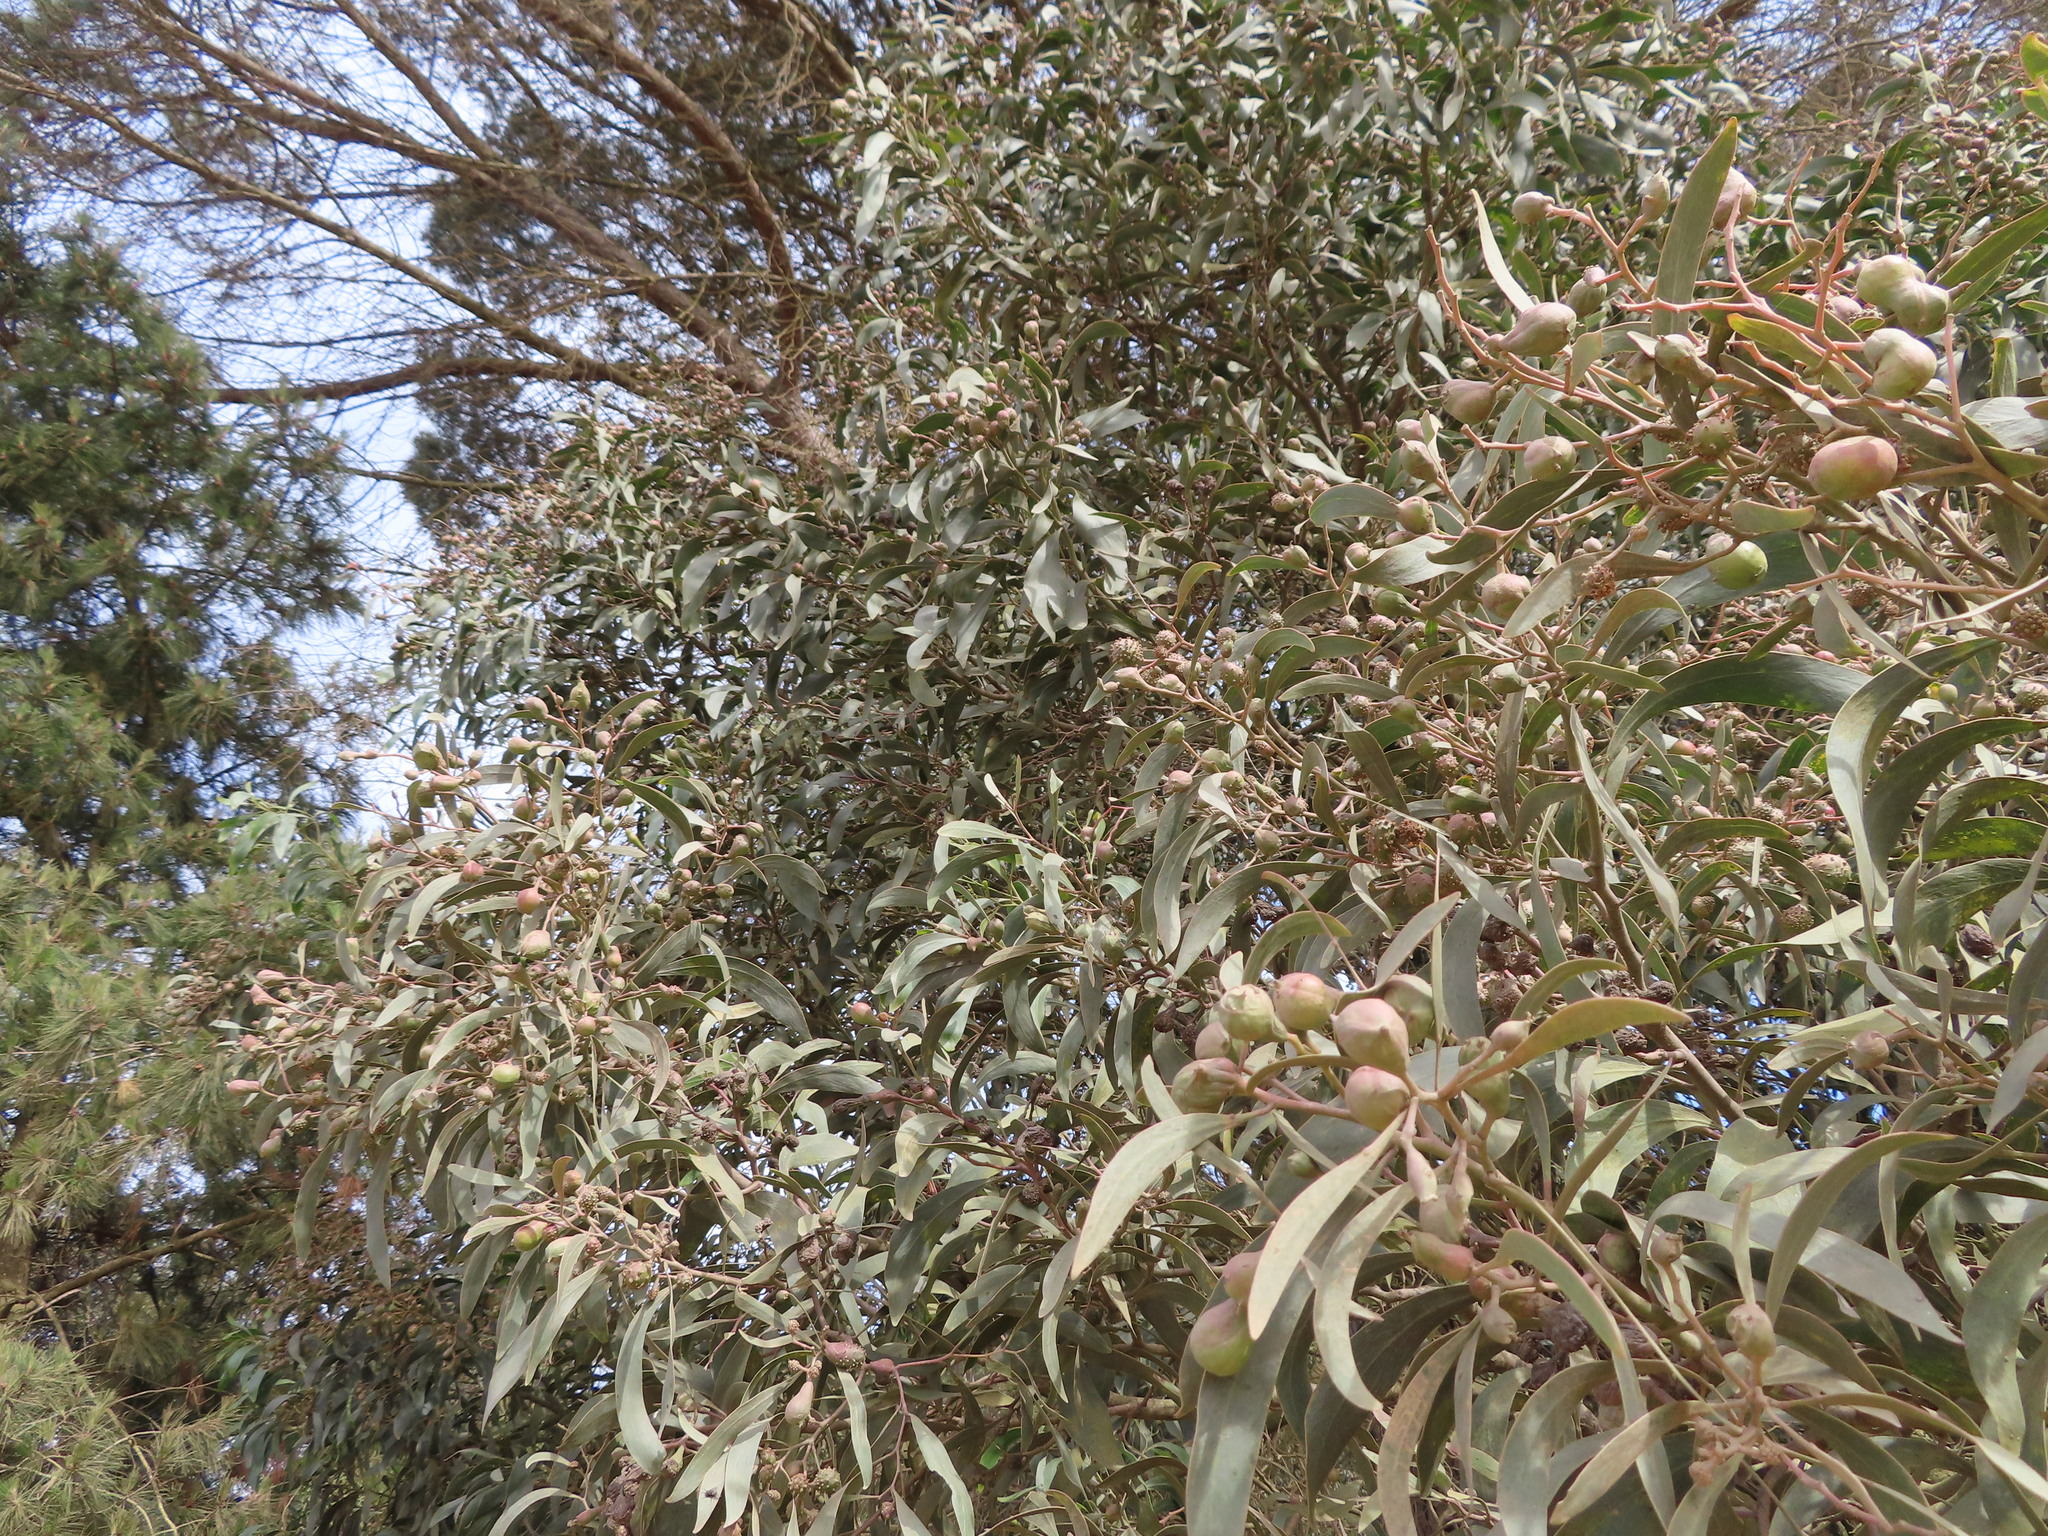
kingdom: Plantae
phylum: Tracheophyta
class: Magnoliopsida
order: Fabales
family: Fabaceae
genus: Acacia
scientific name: Acacia pycnantha
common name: Golden wattle
